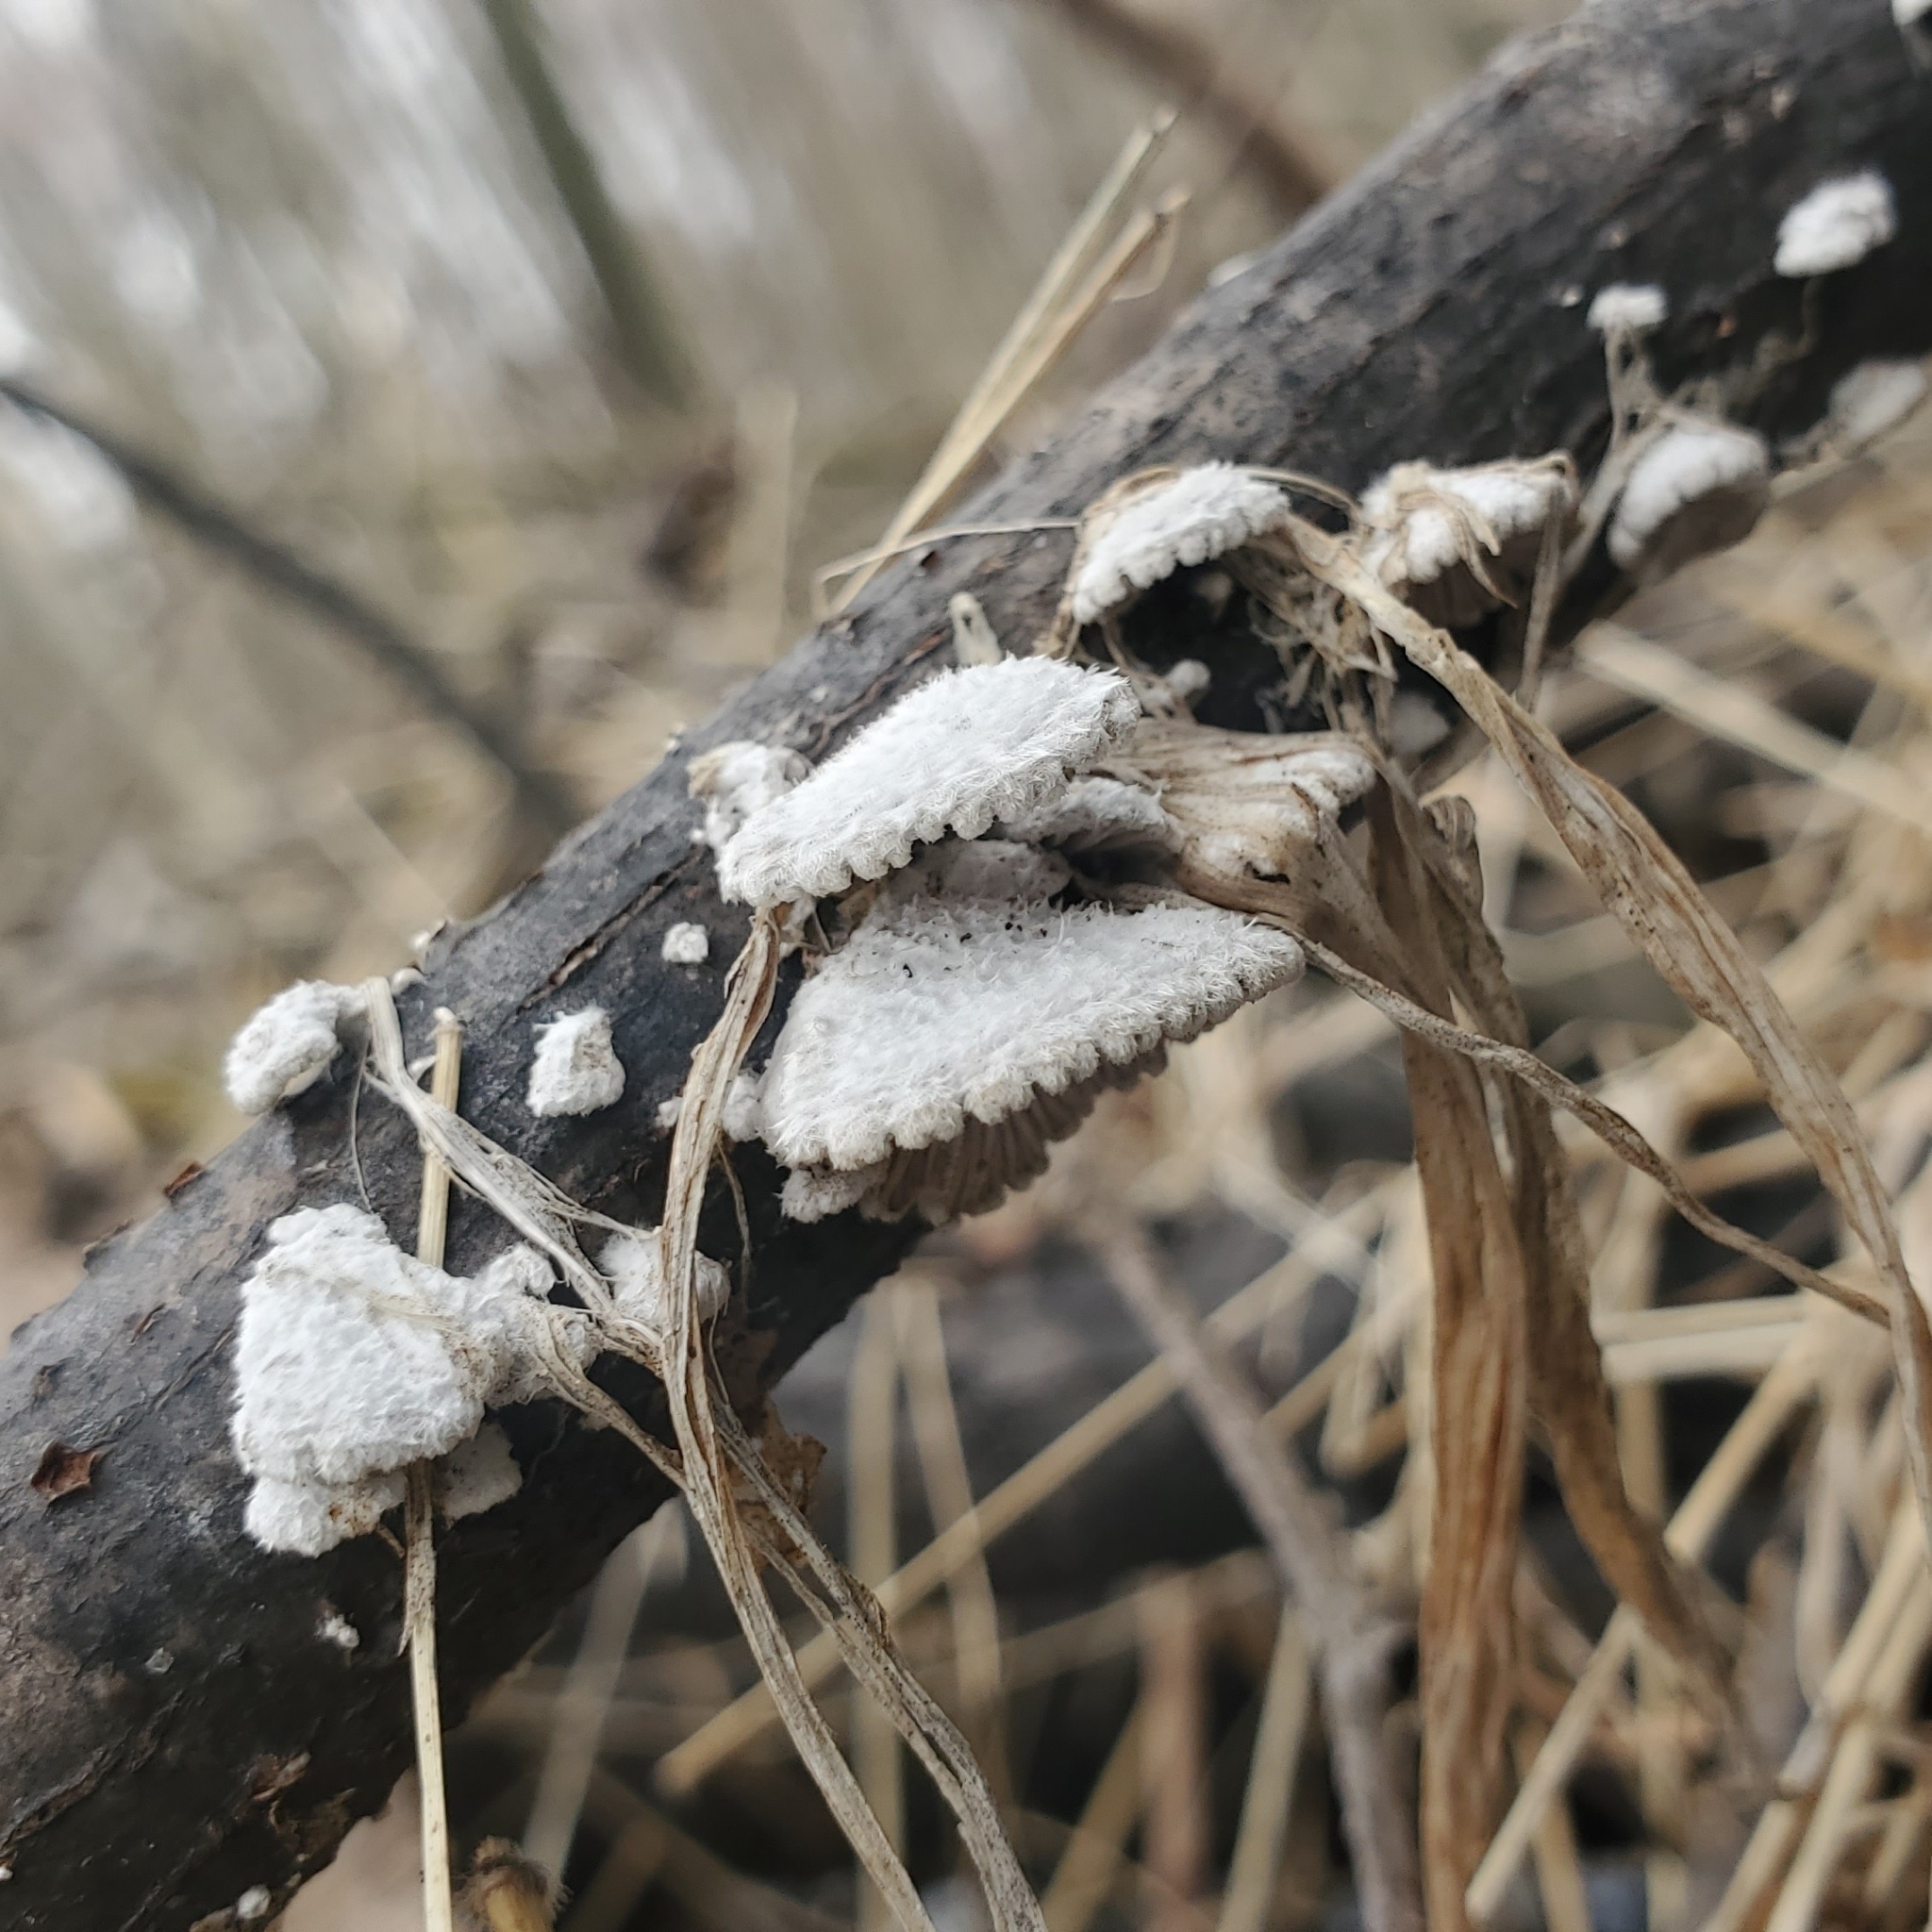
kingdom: Fungi
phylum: Basidiomycota
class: Agaricomycetes
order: Agaricales
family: Schizophyllaceae
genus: Schizophyllum
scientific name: Schizophyllum commune
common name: Common porecrust
